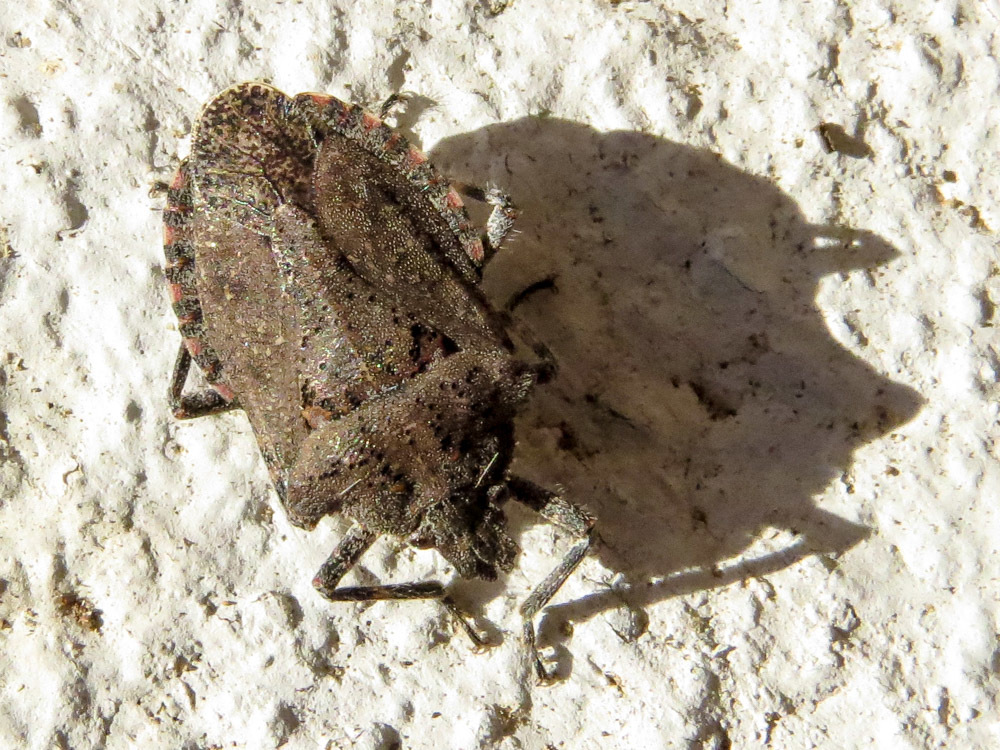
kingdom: Animalia
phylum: Arthropoda
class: Insecta
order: Hemiptera
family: Pentatomidae
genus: Brochymena
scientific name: Brochymena quadripustulata
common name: Four-humped stink bug
